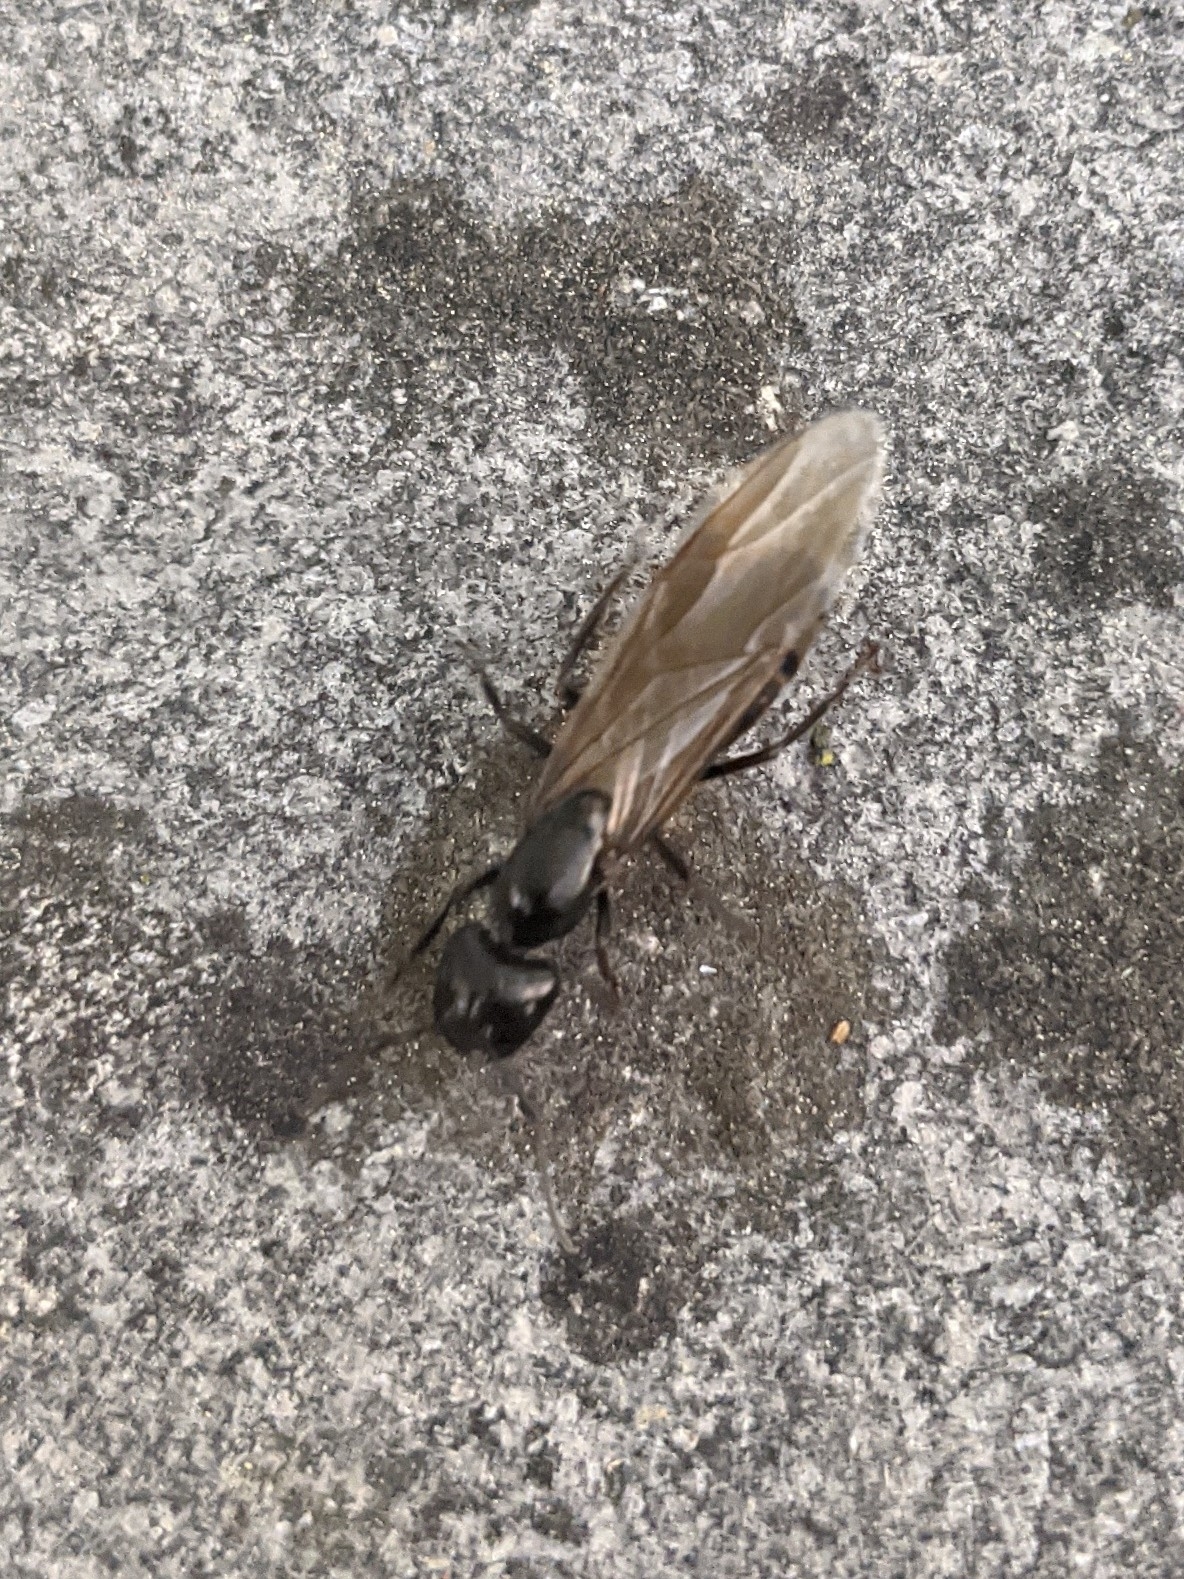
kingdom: Animalia
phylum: Arthropoda
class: Insecta
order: Hymenoptera
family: Formicidae
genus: Camponotus
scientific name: Camponotus pennsylvanicus
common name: Black carpenter ant
